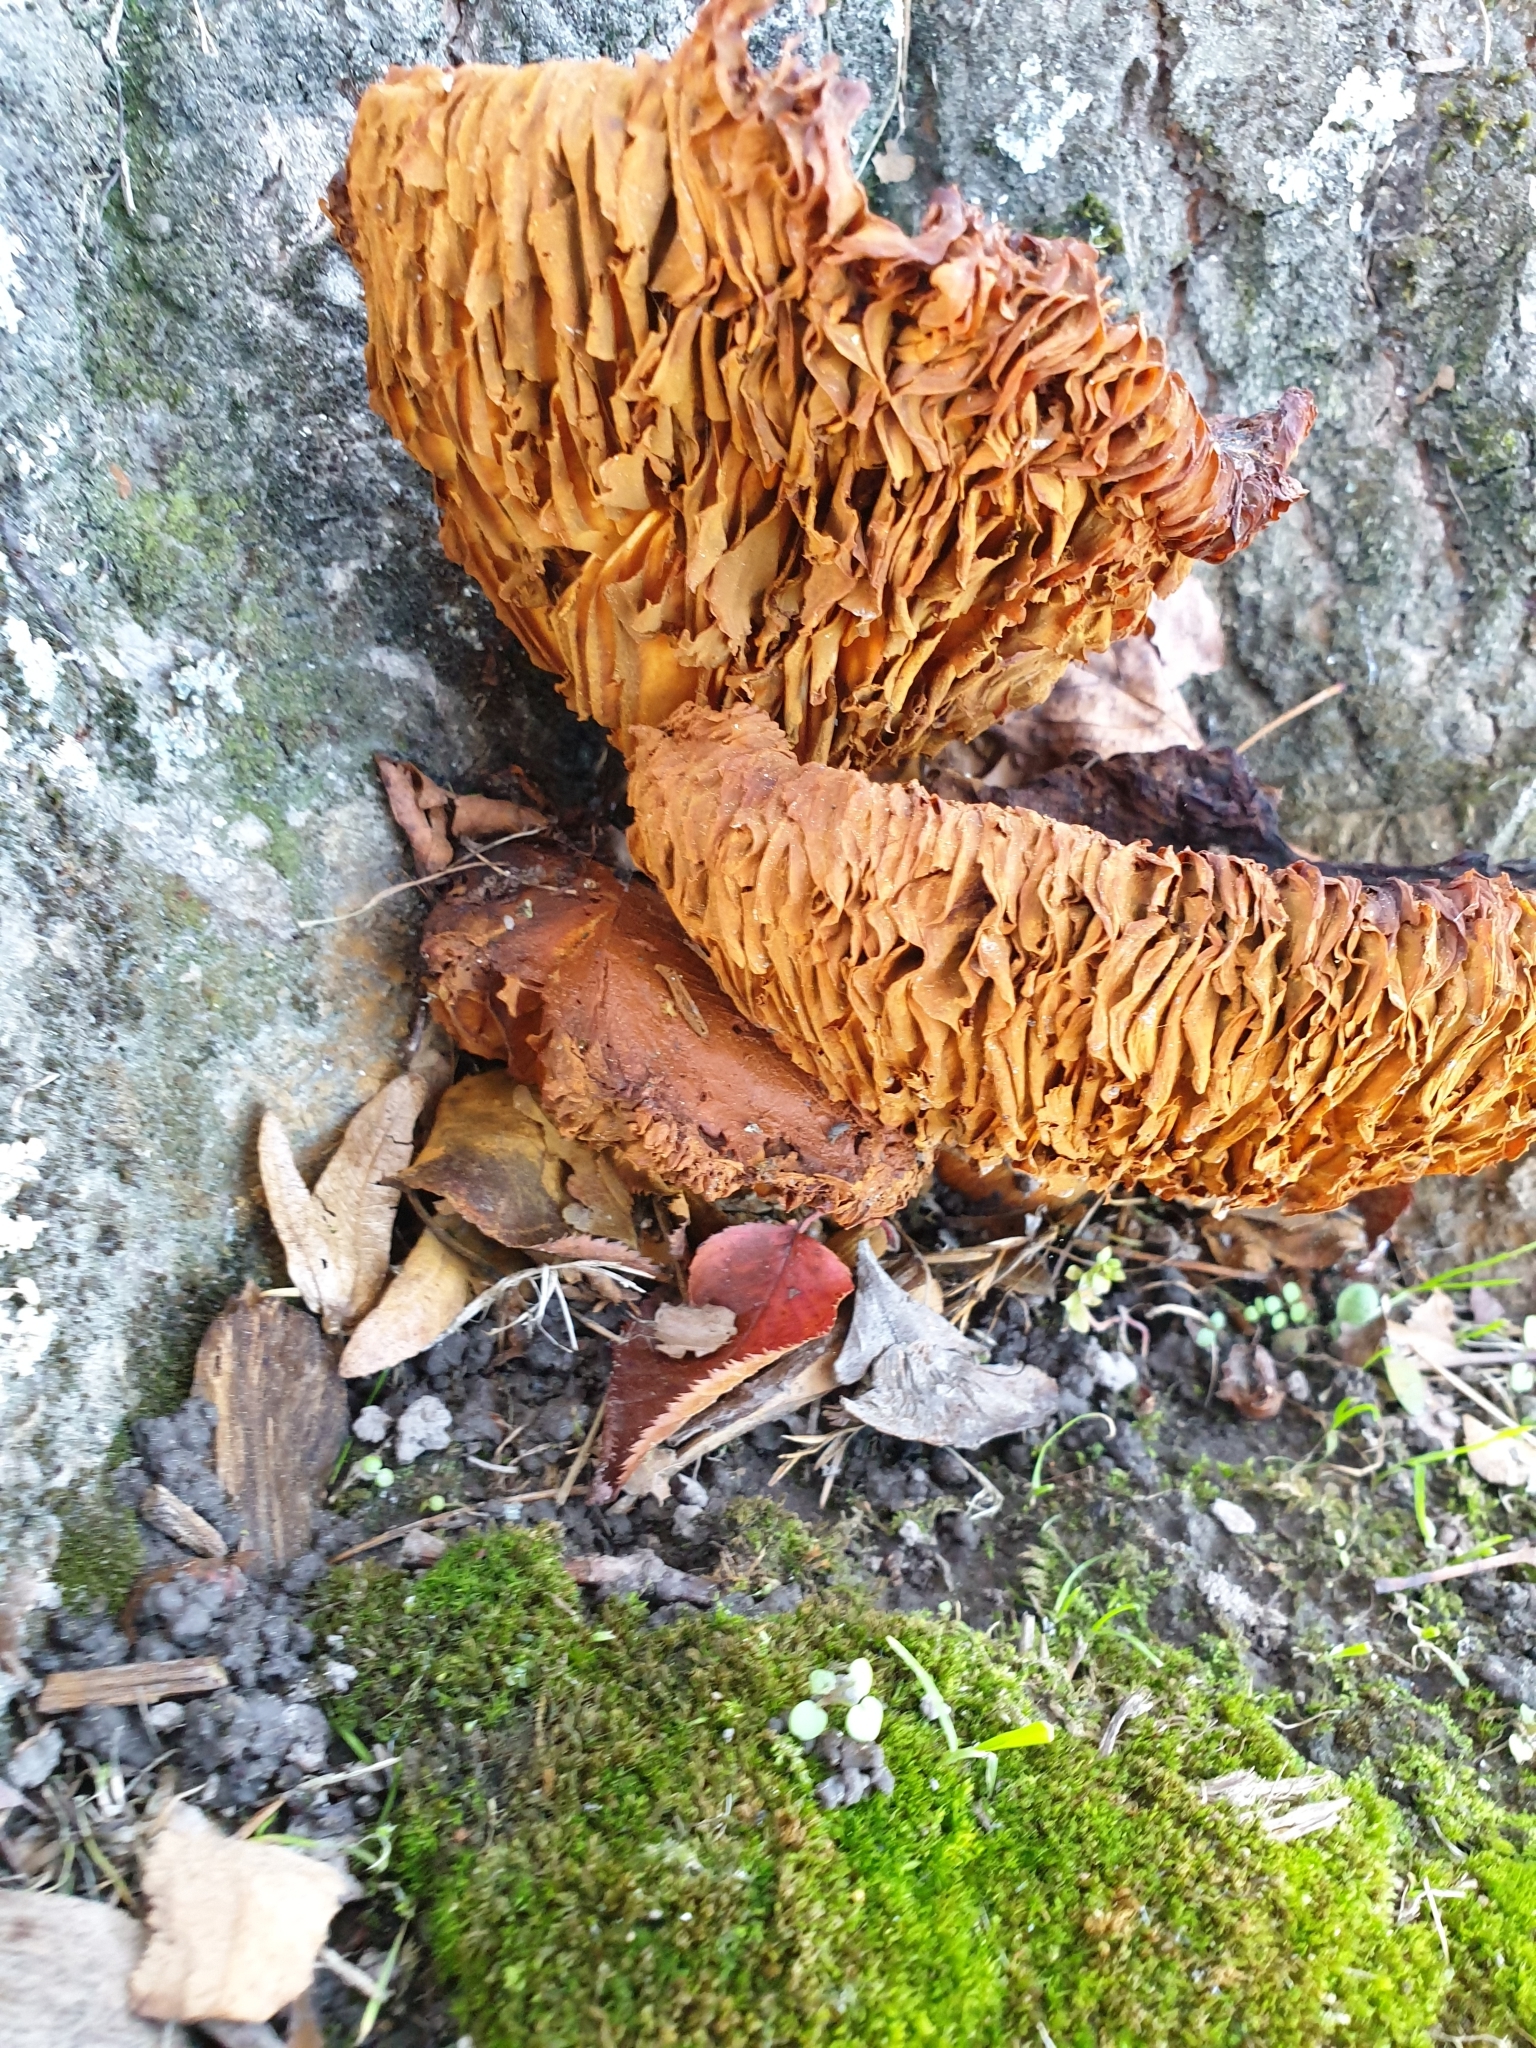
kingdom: Fungi
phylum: Basidiomycota
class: Agaricomycetes
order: Agaricales
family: Hymenogastraceae
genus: Gymnopilus
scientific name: Gymnopilus junonius
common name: Spectacular rustgill
